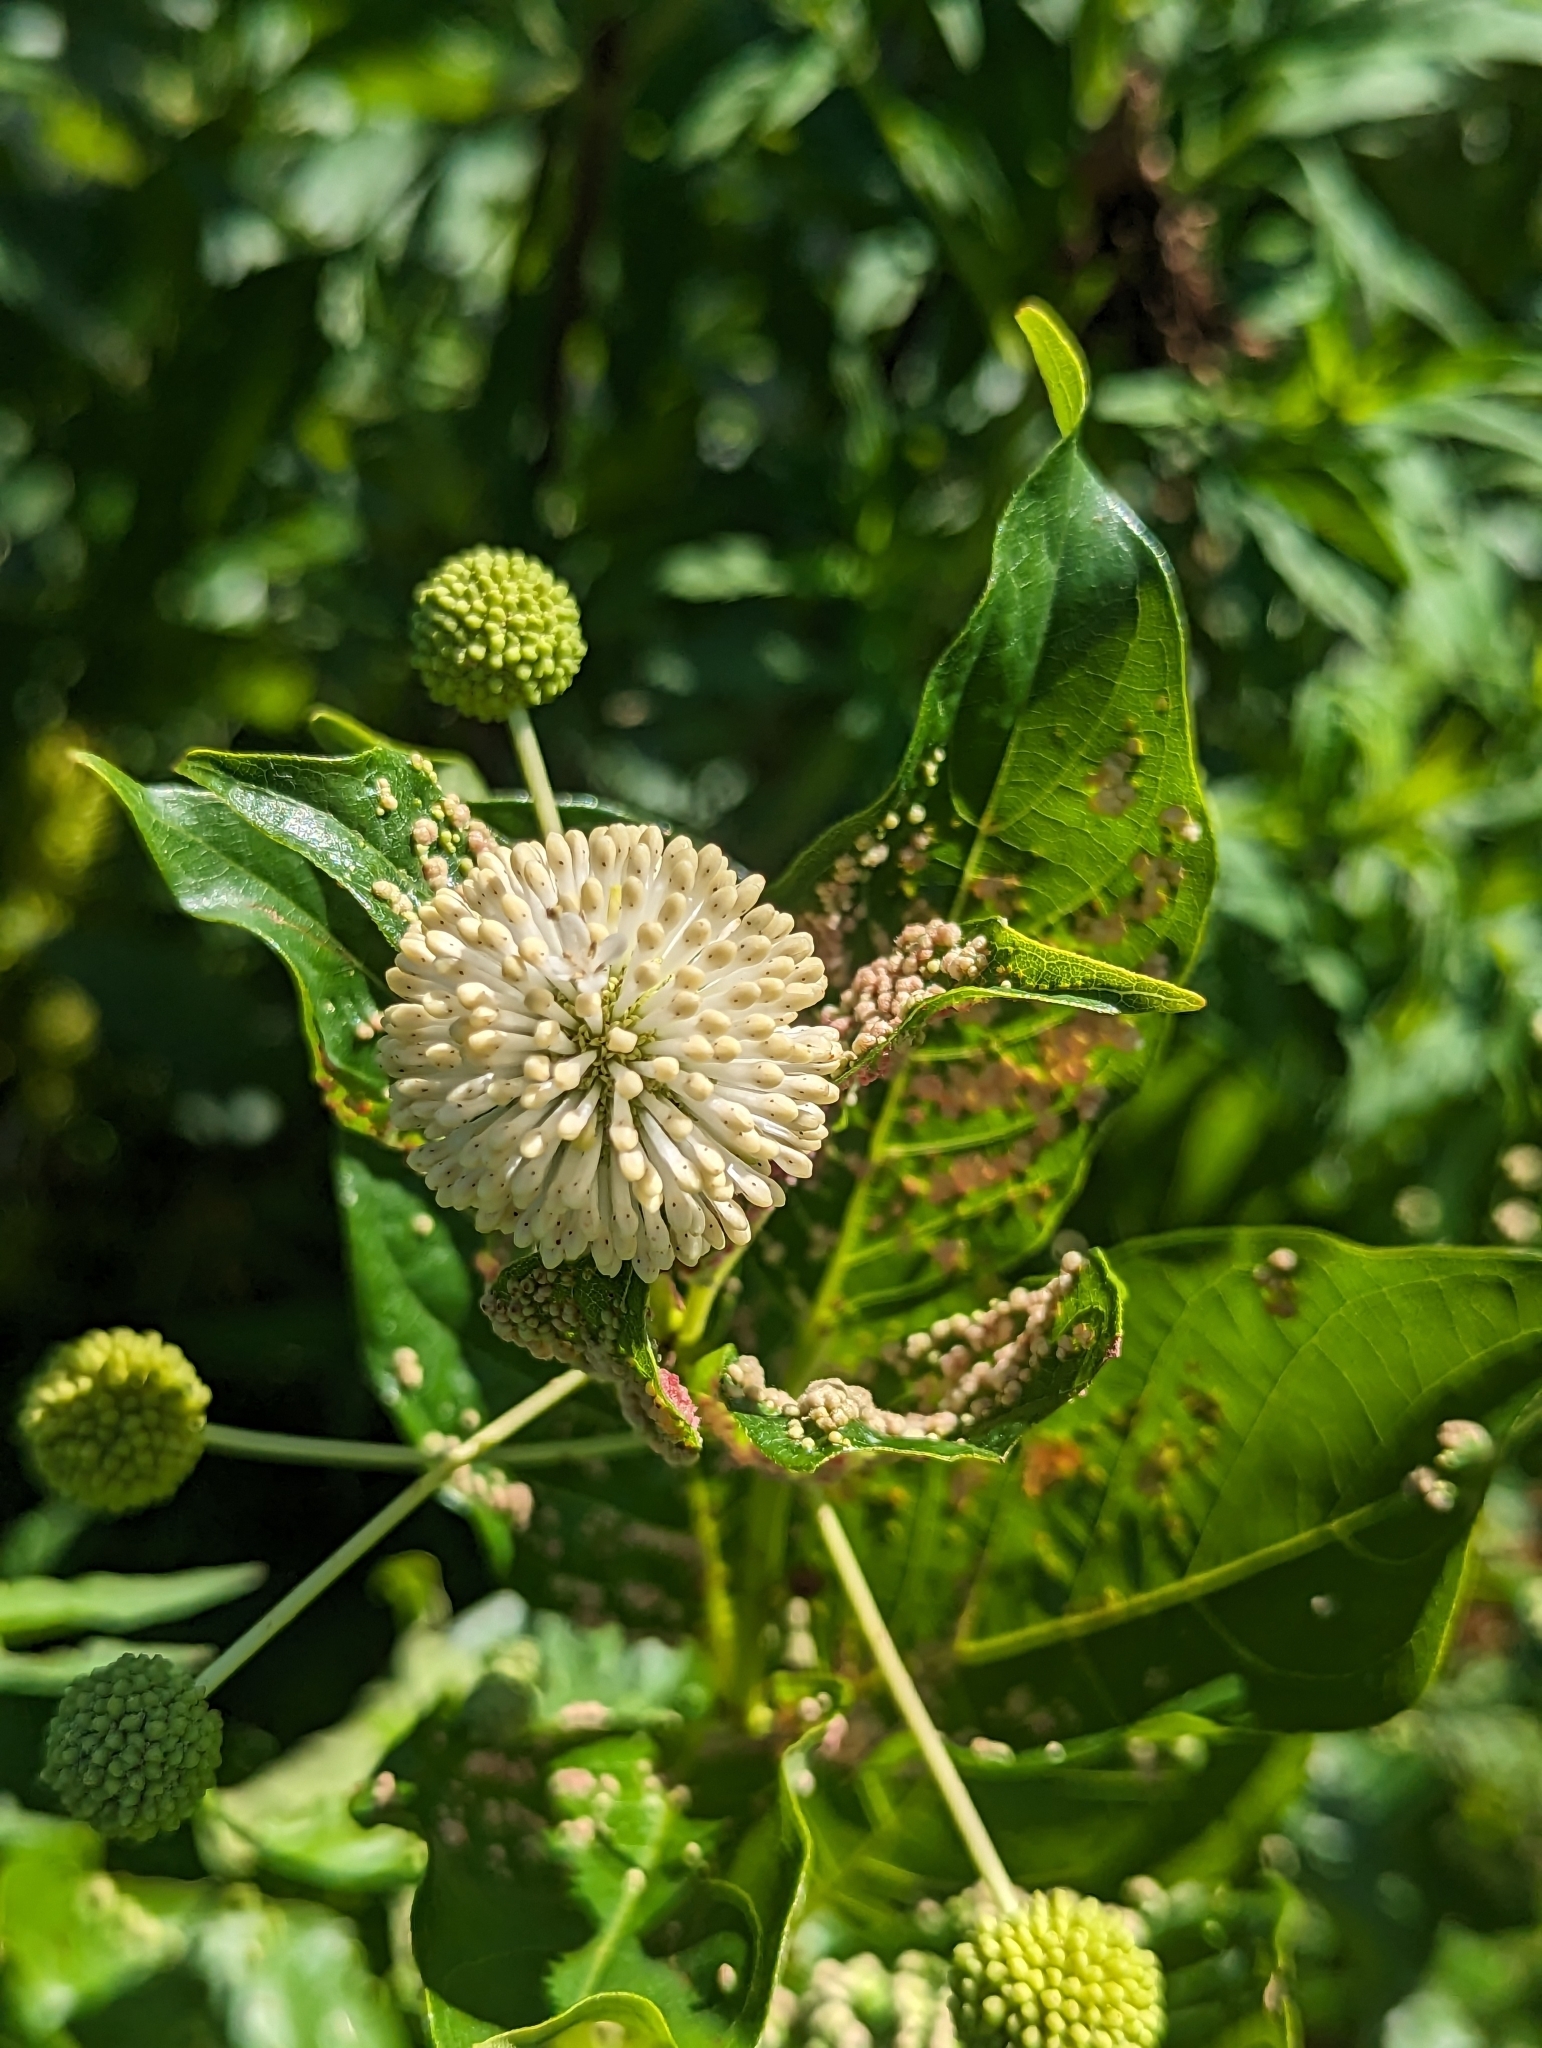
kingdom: Plantae
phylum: Tracheophyta
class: Magnoliopsida
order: Gentianales
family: Rubiaceae
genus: Cephalanthus
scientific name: Cephalanthus occidentalis
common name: Button-willow
